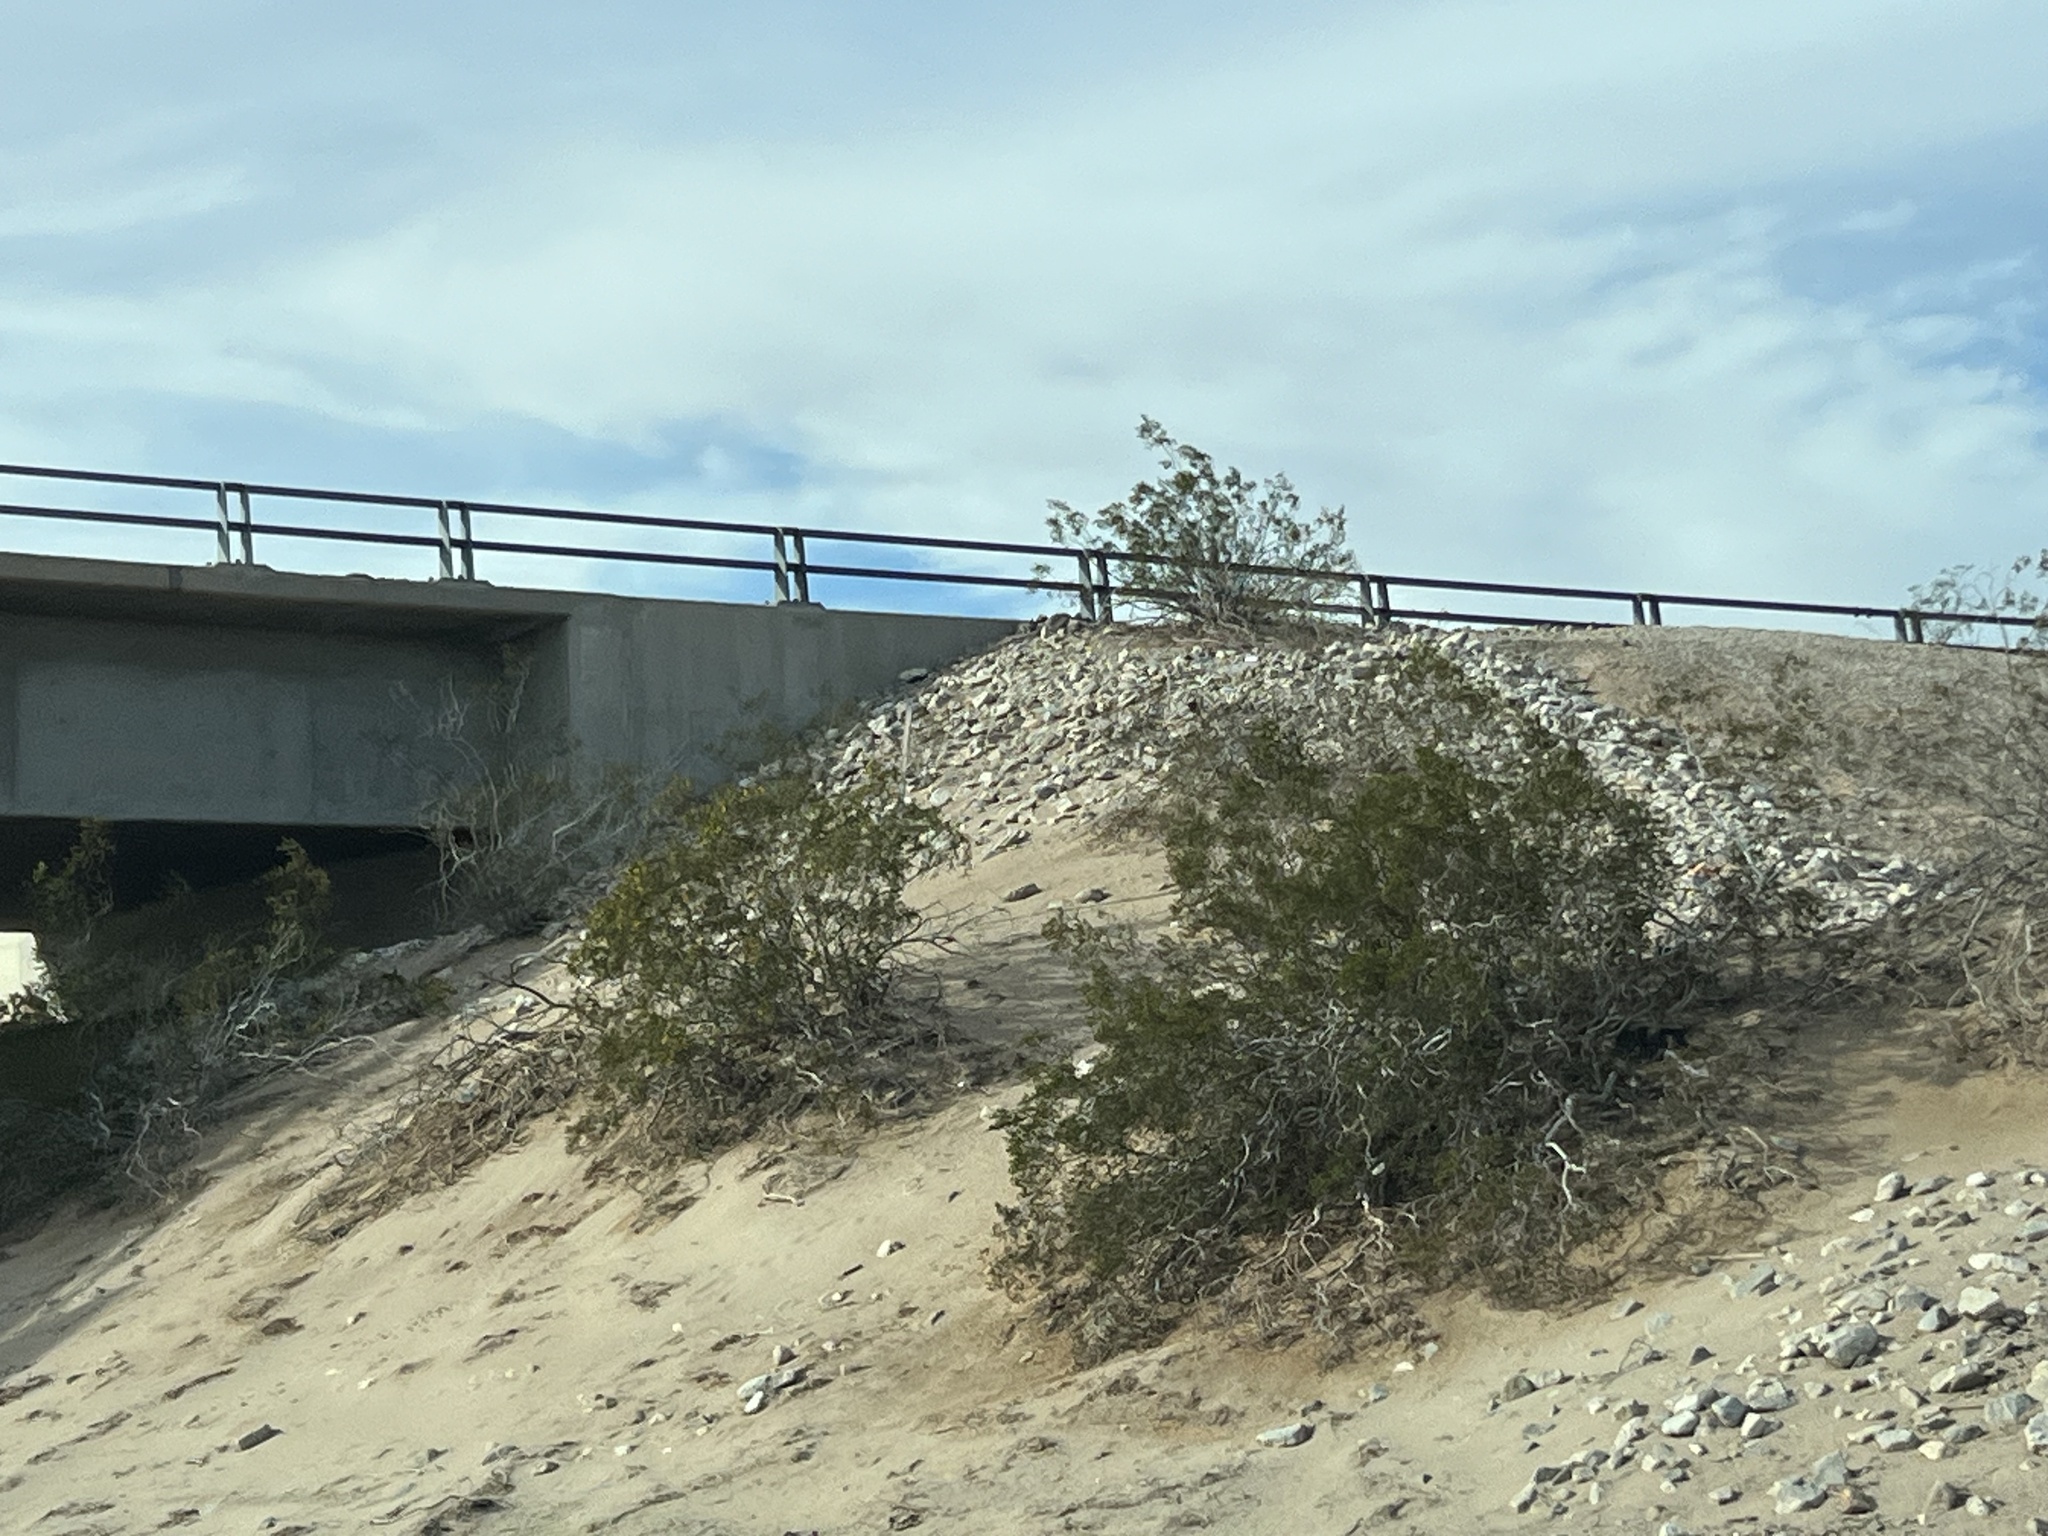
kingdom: Plantae
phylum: Tracheophyta
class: Magnoliopsida
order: Zygophyllales
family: Zygophyllaceae
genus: Larrea
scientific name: Larrea tridentata
